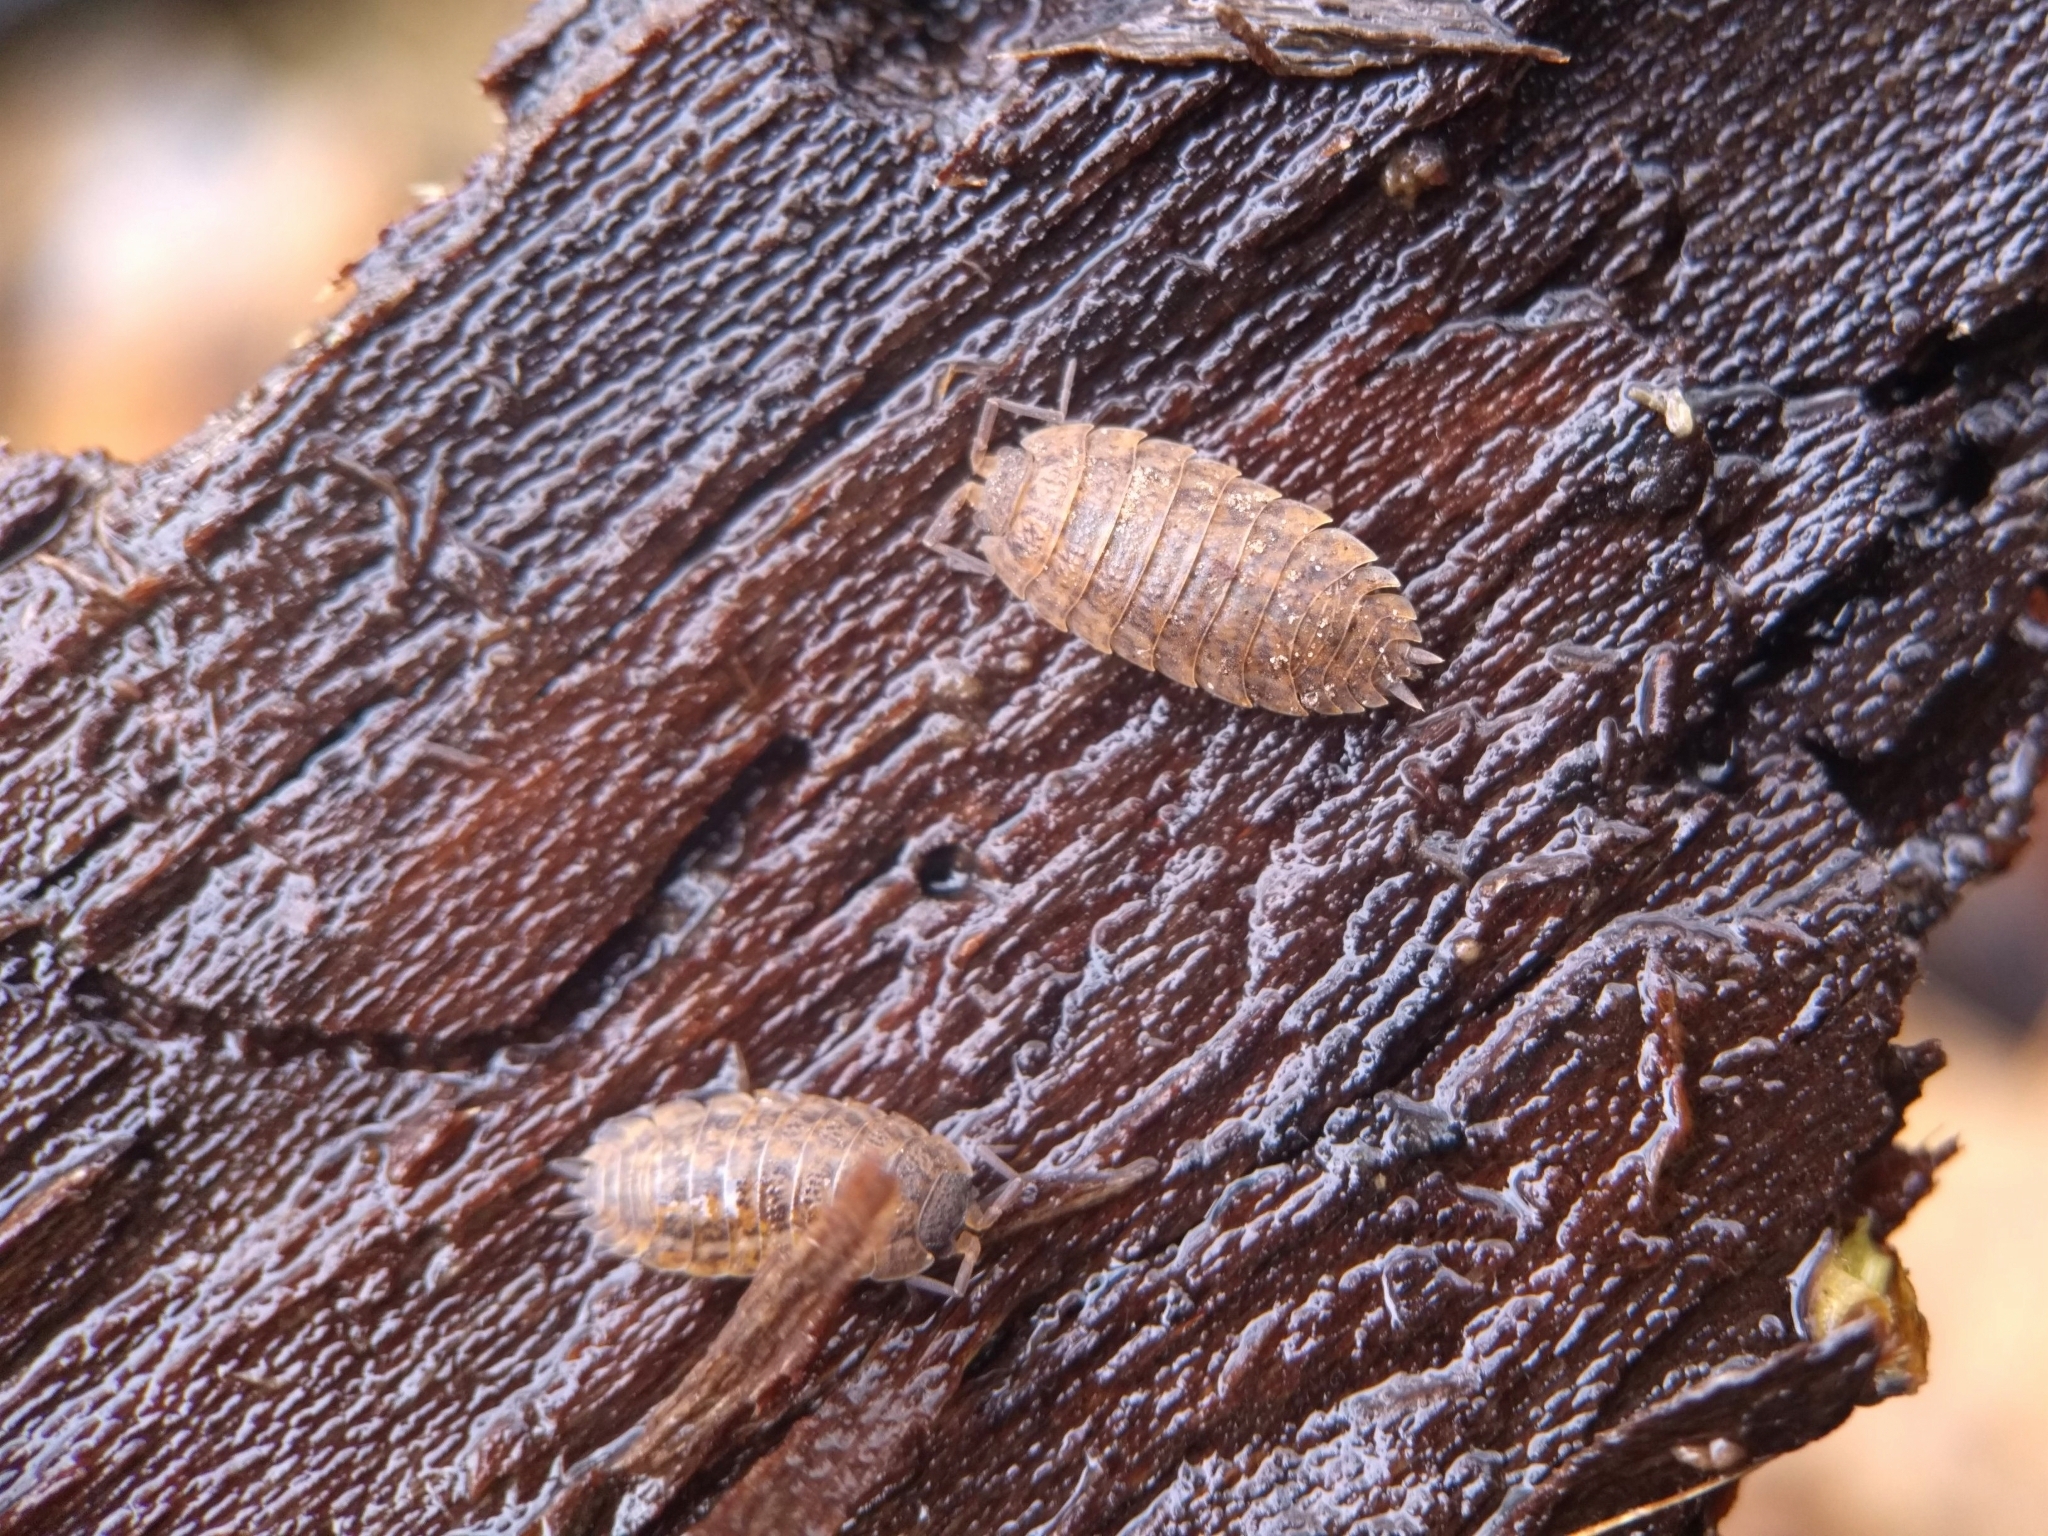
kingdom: Animalia
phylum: Arthropoda
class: Malacostraca
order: Isopoda
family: Trachelipodidae
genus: Trachelipus
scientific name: Trachelipus rathkii
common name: Isopod
